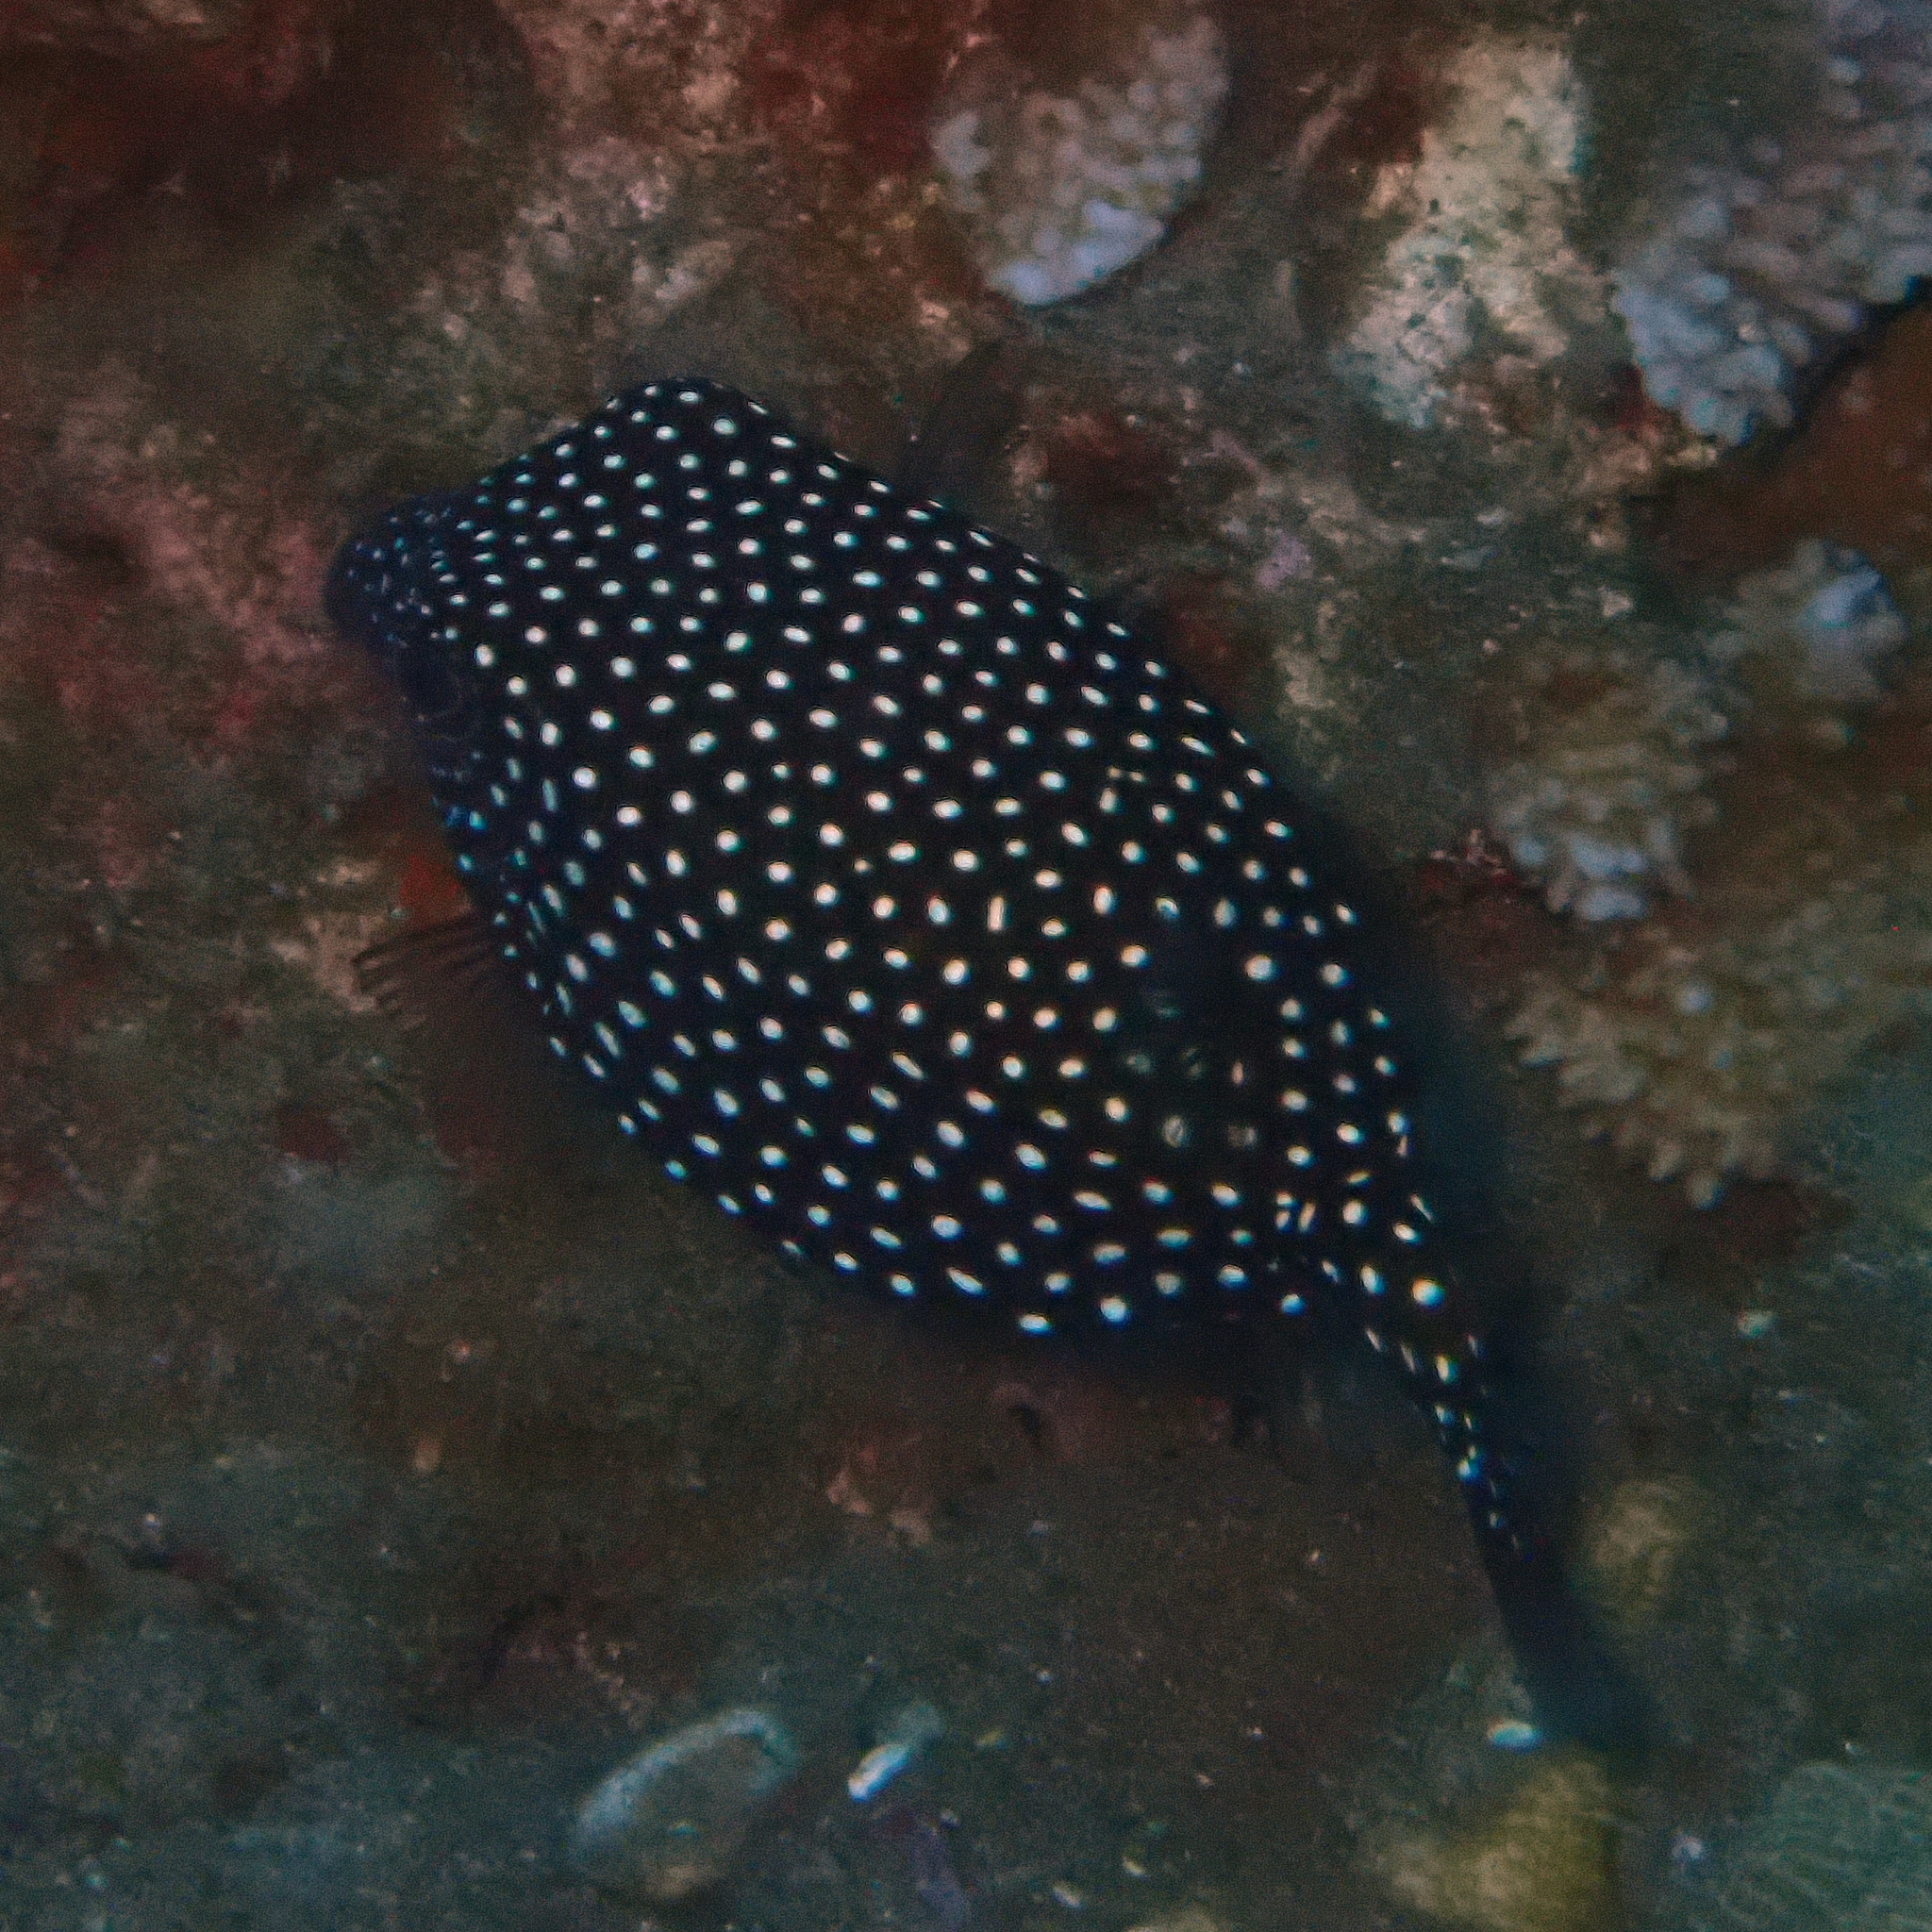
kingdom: Animalia
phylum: Chordata
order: Tetraodontiformes
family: Ostraciidae
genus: Ostracion
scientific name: Ostracion meleagris
